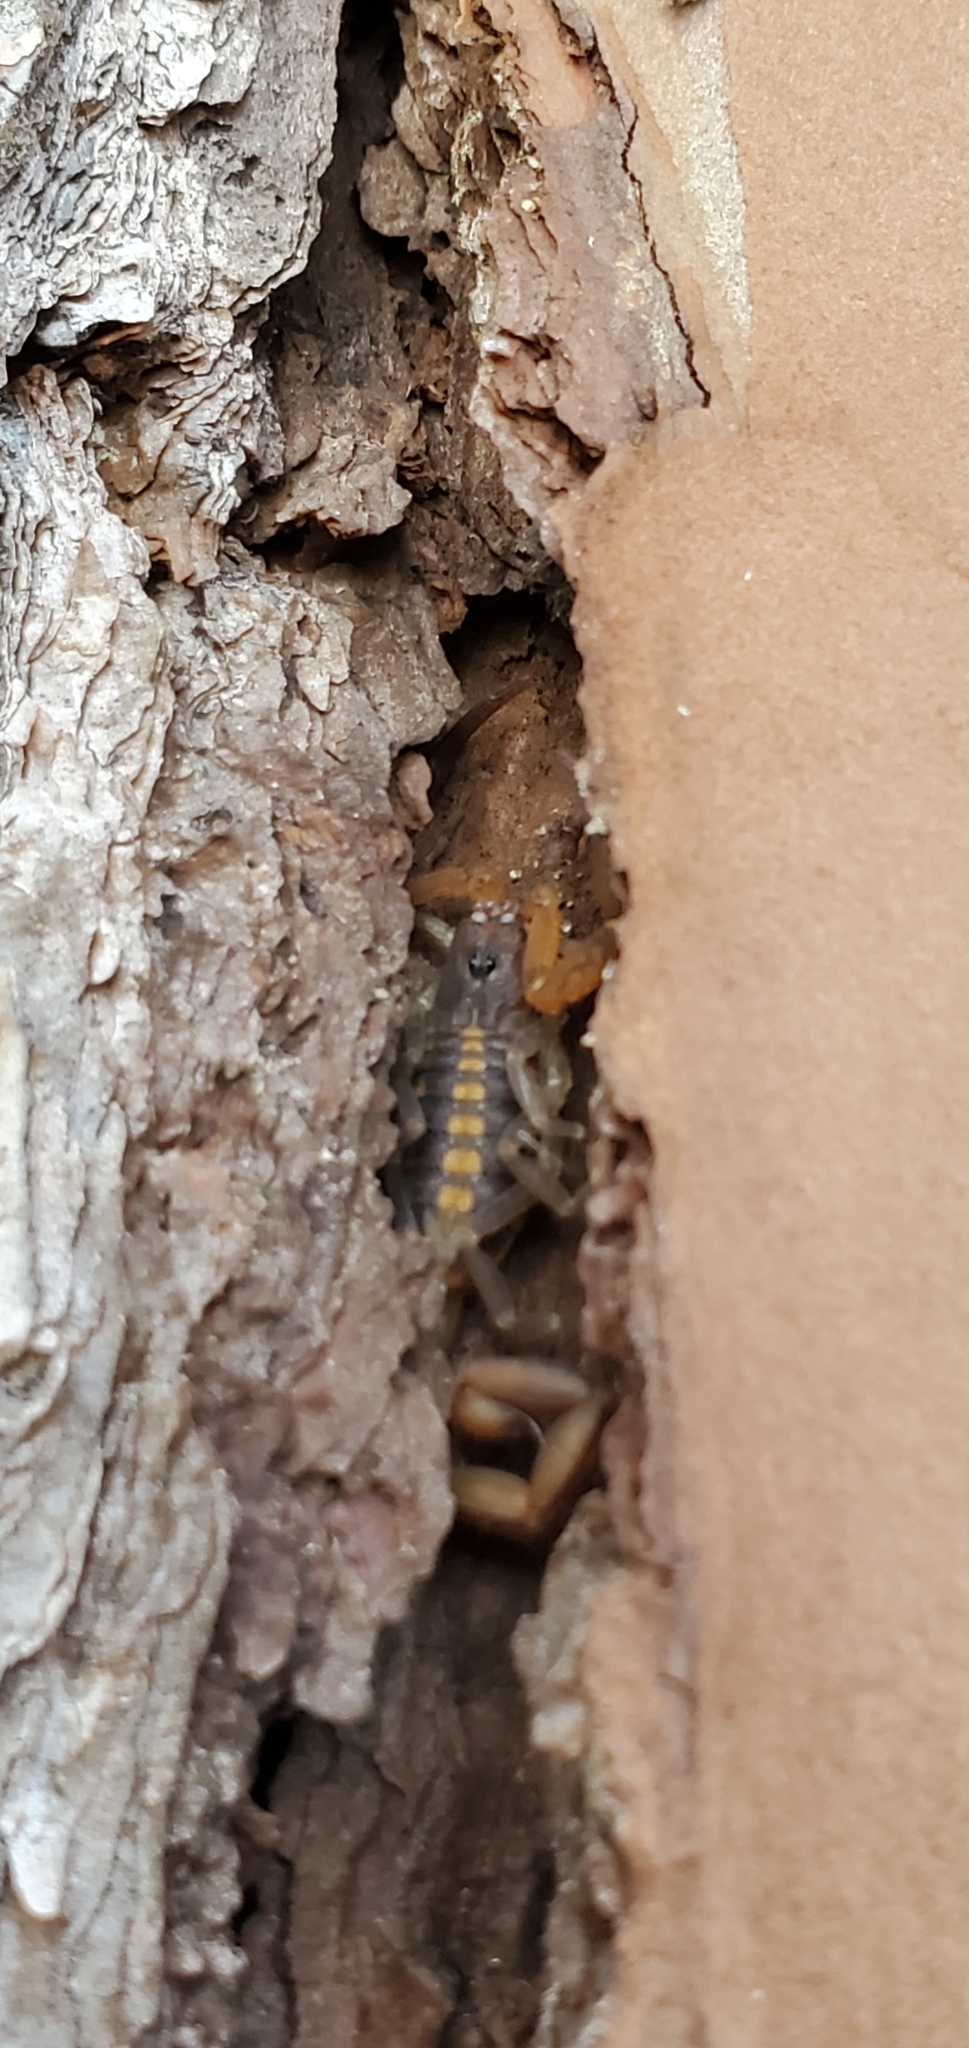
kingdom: Animalia
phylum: Arthropoda
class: Arachnida
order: Scorpiones
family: Buthidae
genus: Centruroides
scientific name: Centruroides hentzi
